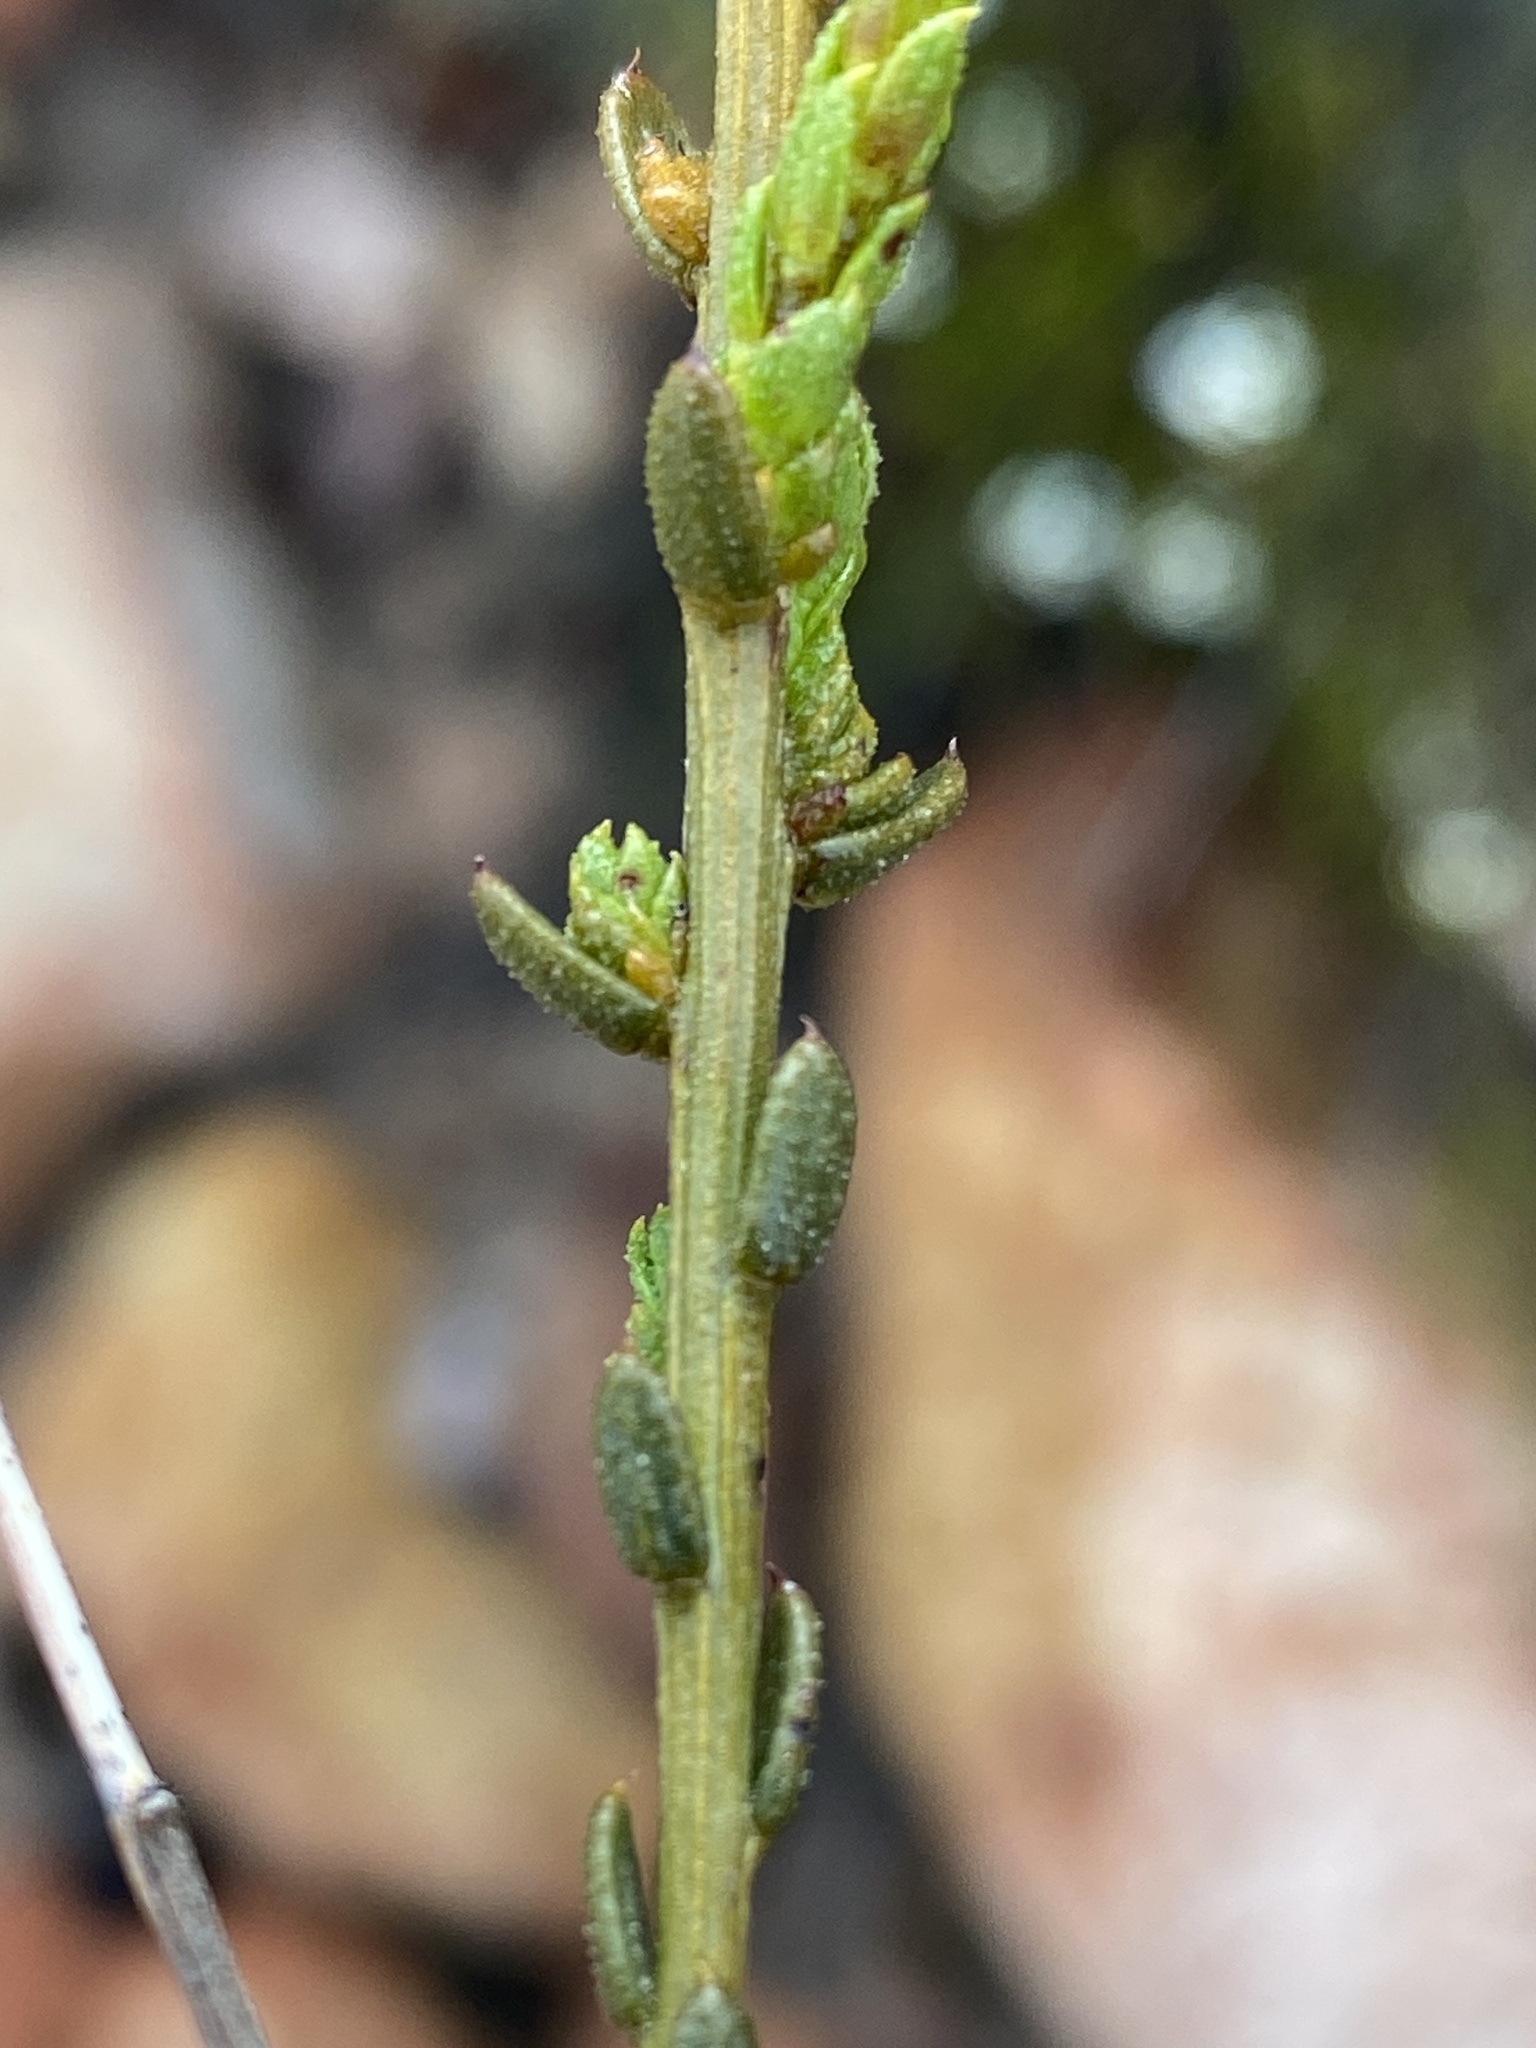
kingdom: Plantae
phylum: Tracheophyta
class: Magnoliopsida
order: Brassicales
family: Brassicaceae
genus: Heliophila
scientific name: Heliophila xylopoda
